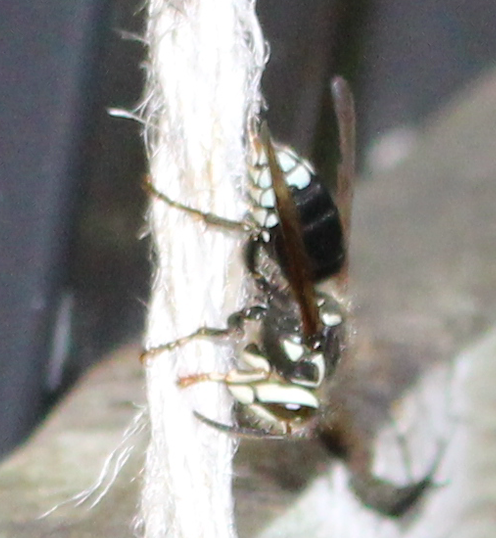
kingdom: Animalia
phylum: Arthropoda
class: Insecta
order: Hymenoptera
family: Vespidae
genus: Dolichovespula
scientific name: Dolichovespula maculata
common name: Bald-faced hornet
